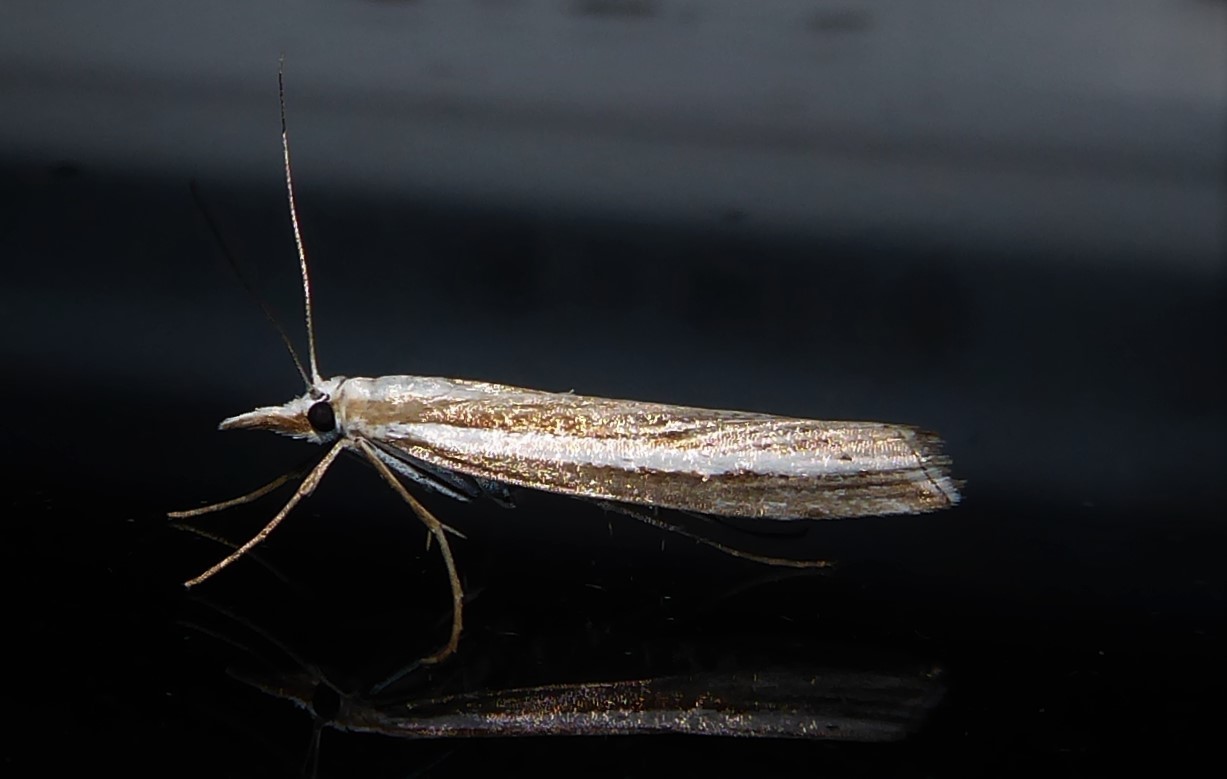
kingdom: Animalia
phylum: Arthropoda
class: Insecta
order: Lepidoptera
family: Crambidae
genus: Orocrambus
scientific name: Orocrambus vittellus
